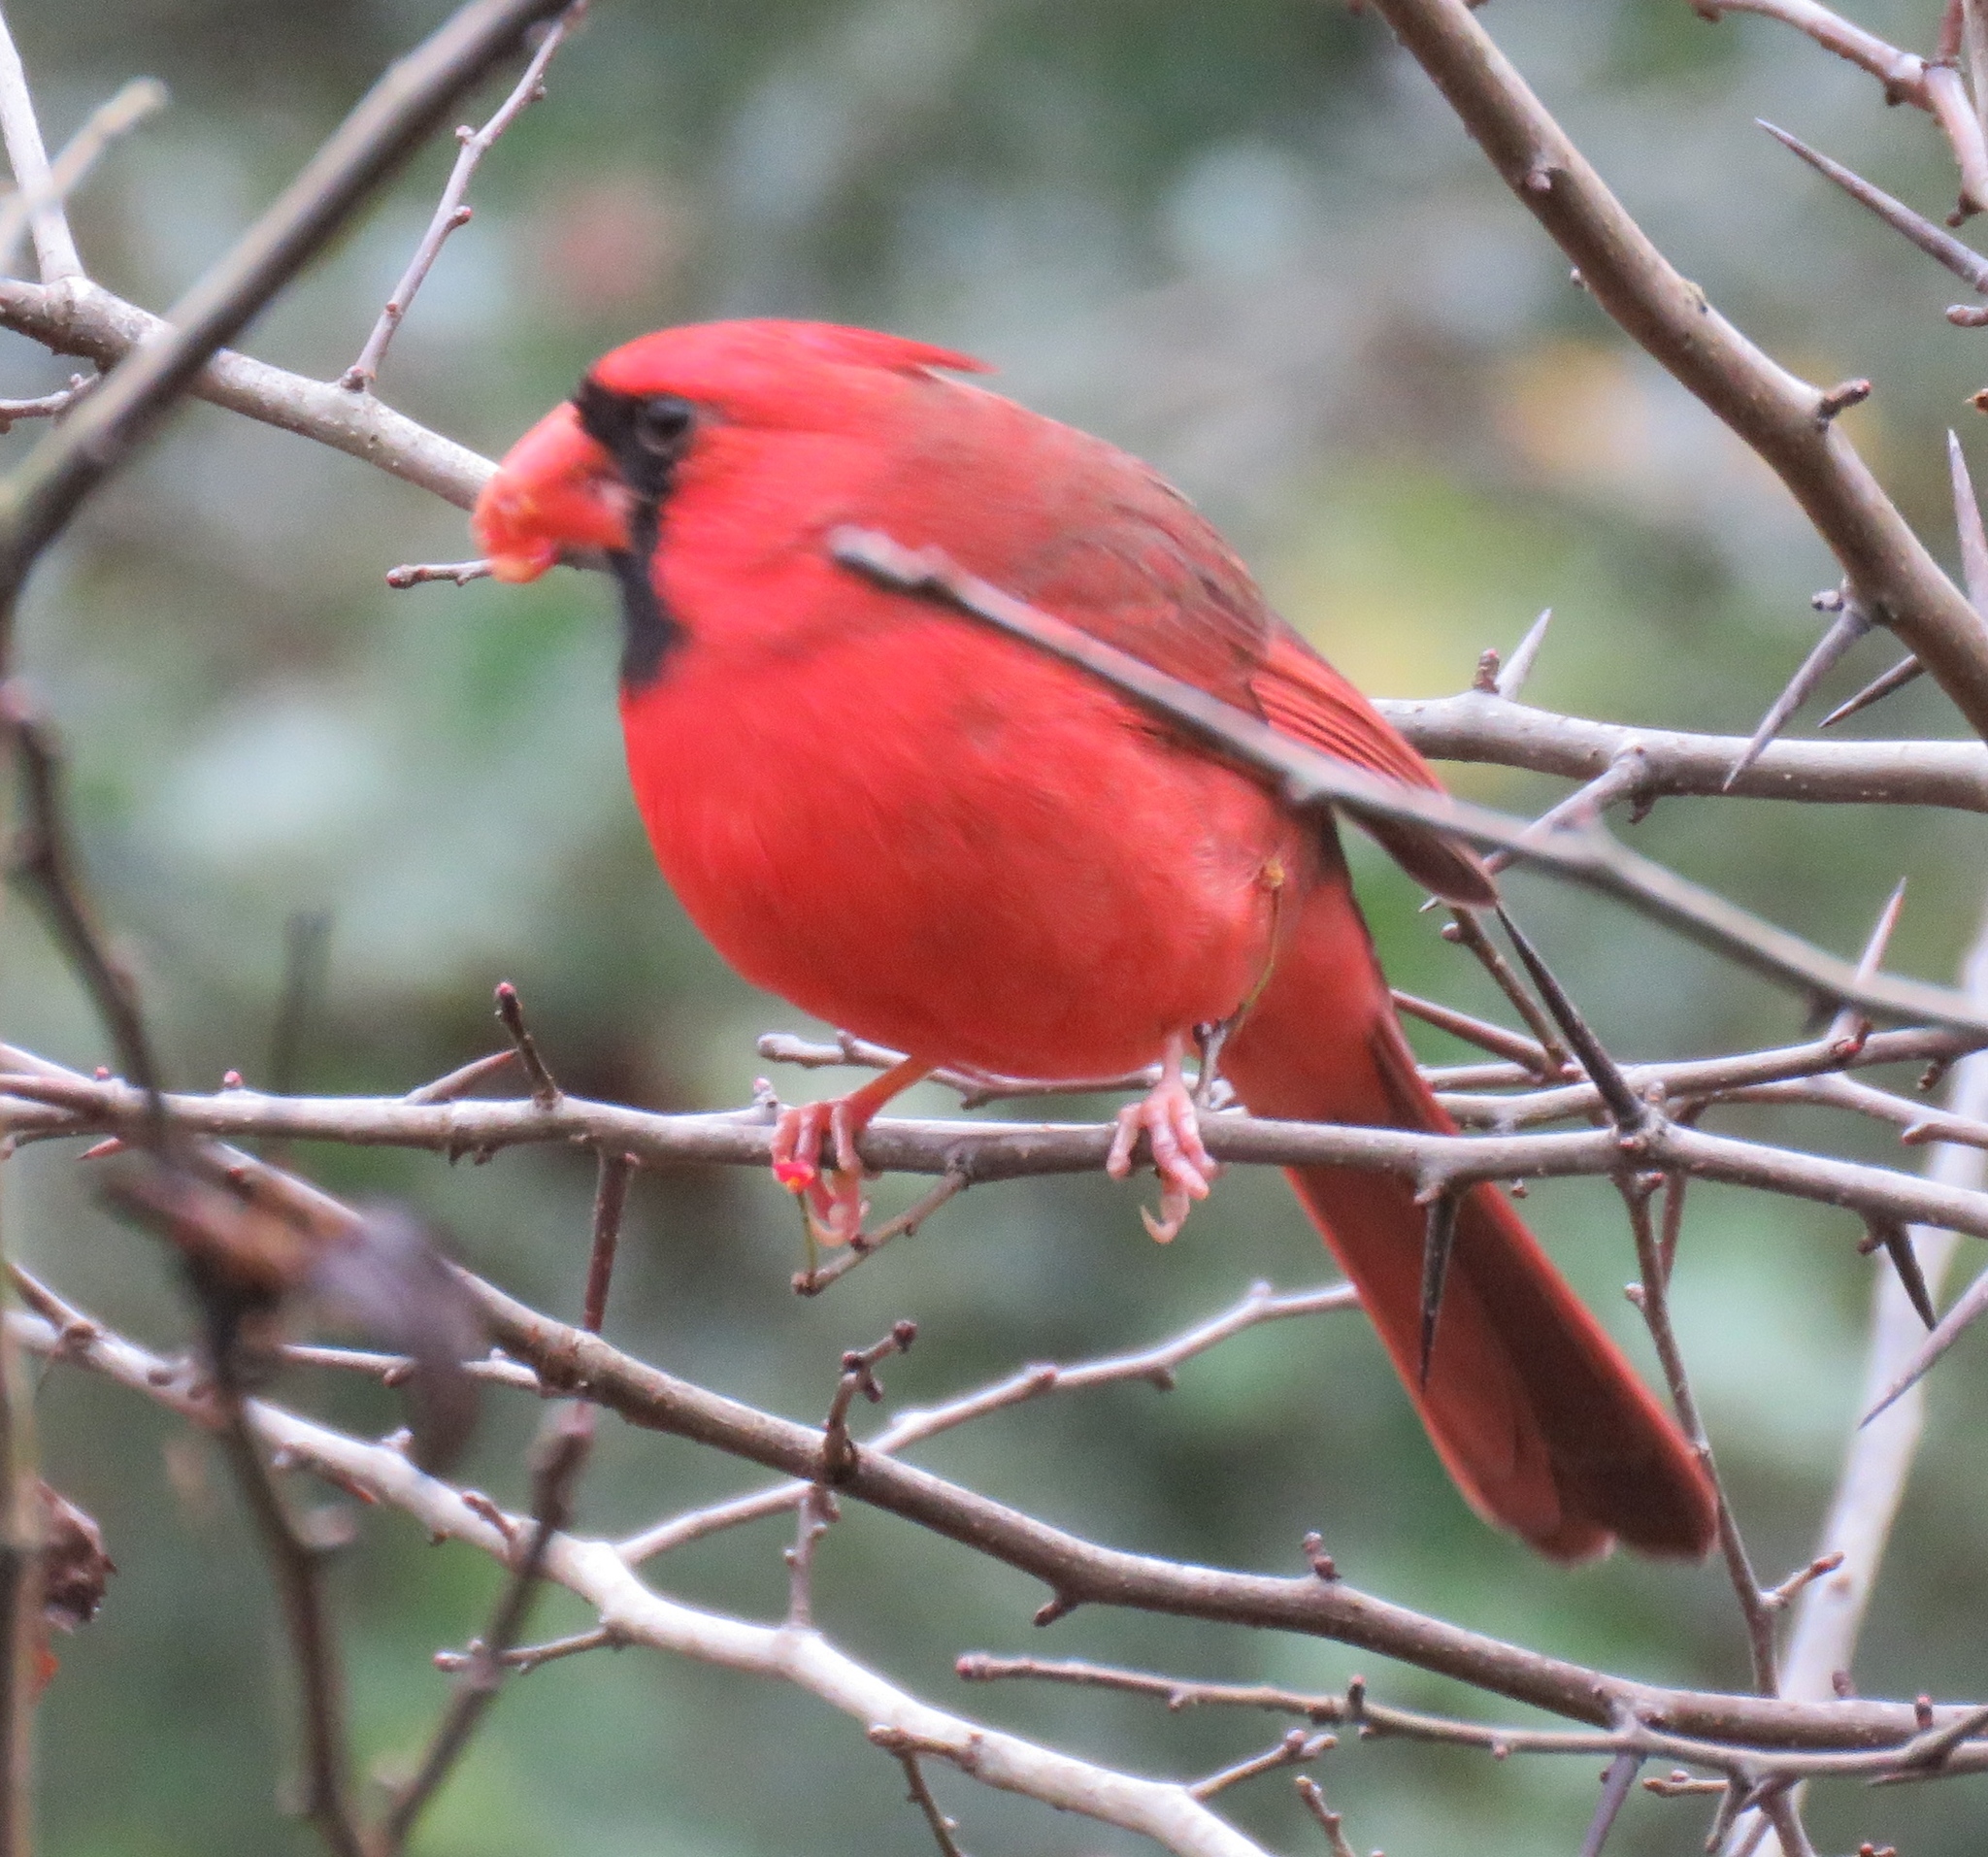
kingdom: Animalia
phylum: Chordata
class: Aves
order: Passeriformes
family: Cardinalidae
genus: Cardinalis
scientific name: Cardinalis cardinalis
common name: Northern cardinal
